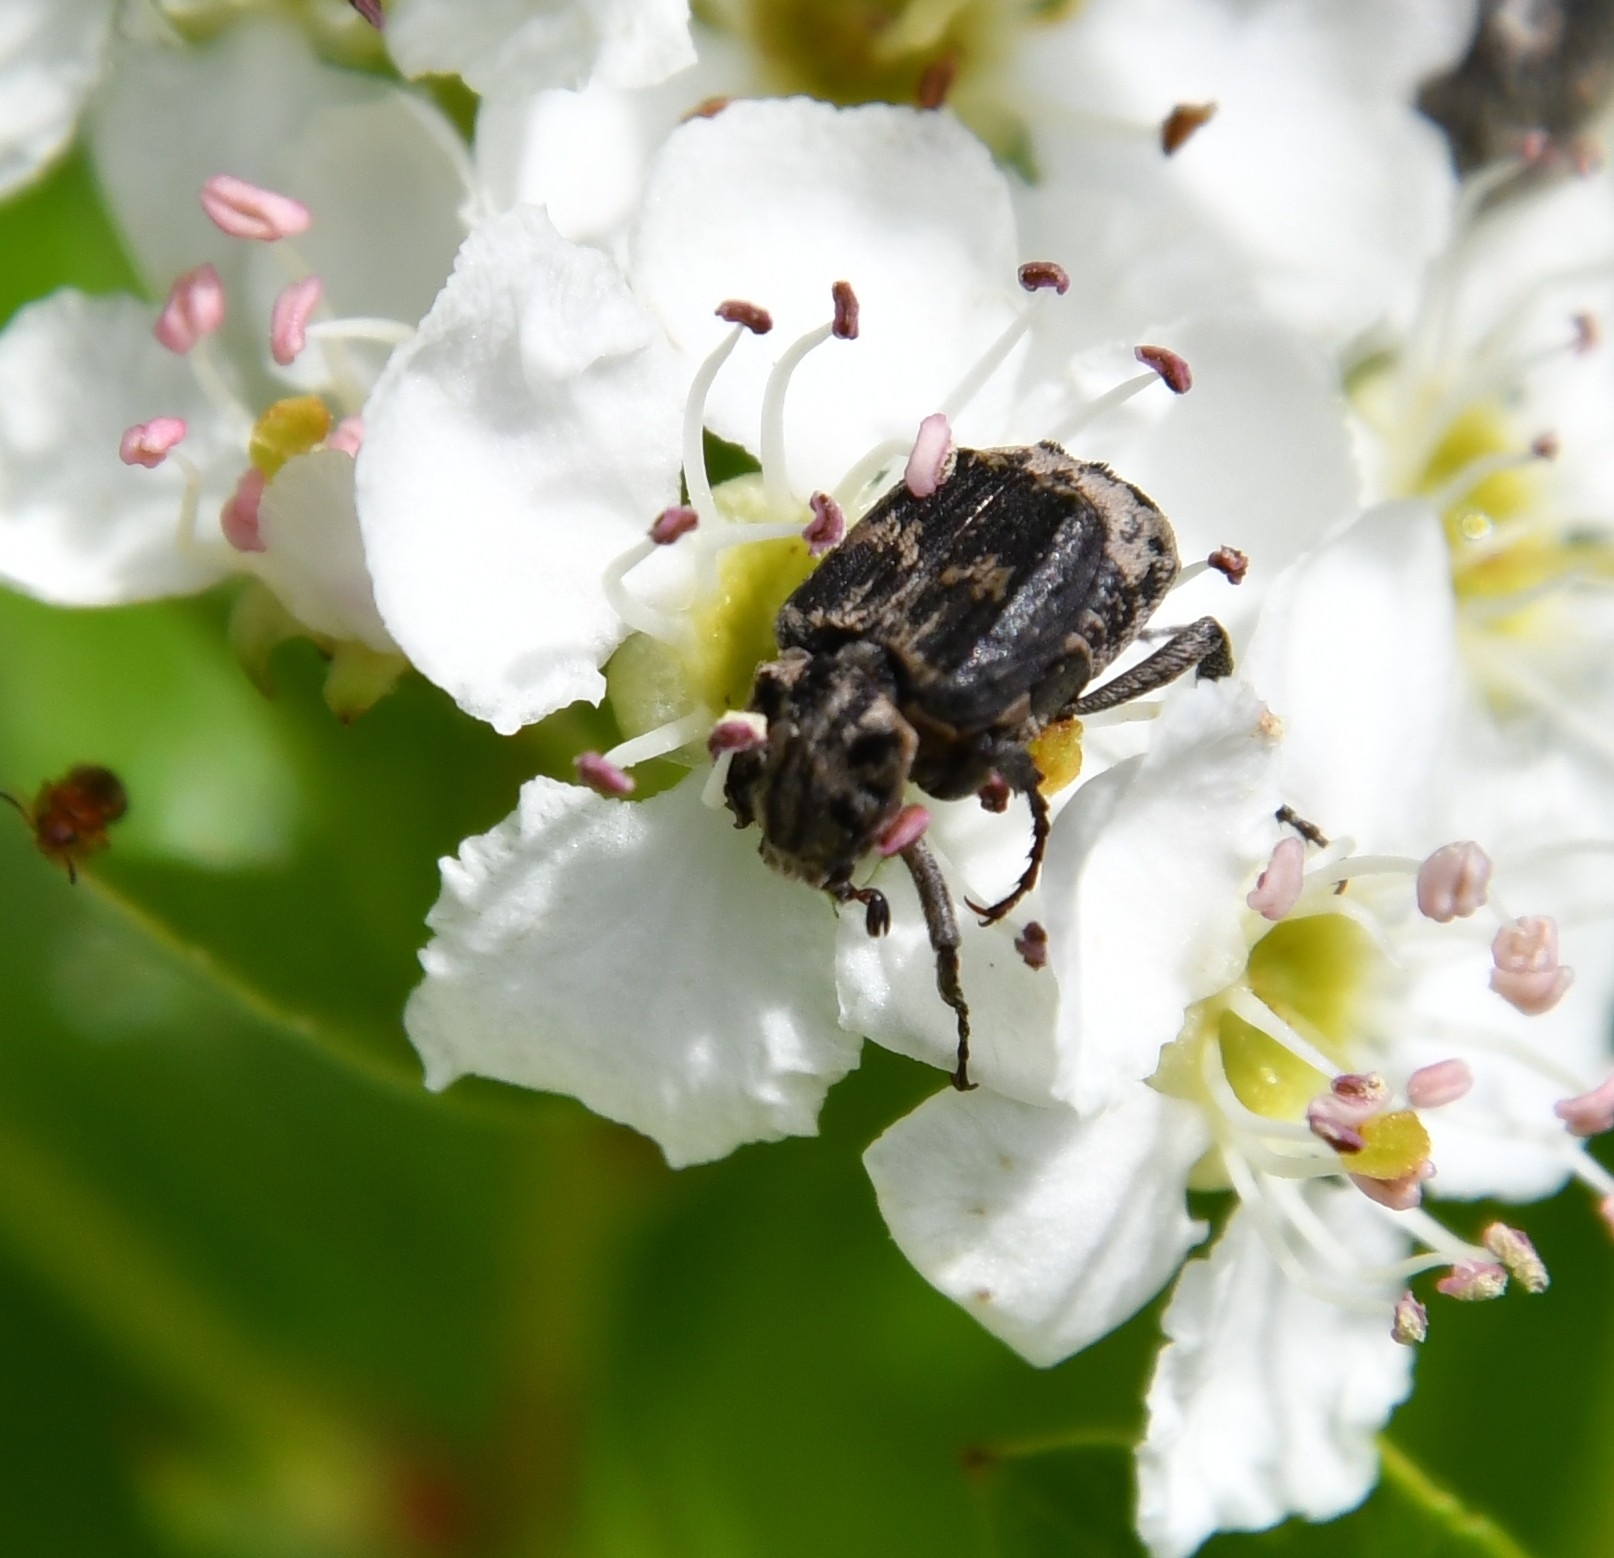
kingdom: Animalia
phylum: Arthropoda
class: Insecta
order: Coleoptera
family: Scarabaeidae
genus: Valgus
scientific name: Valgus hemipterus
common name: Bug flower chafer
